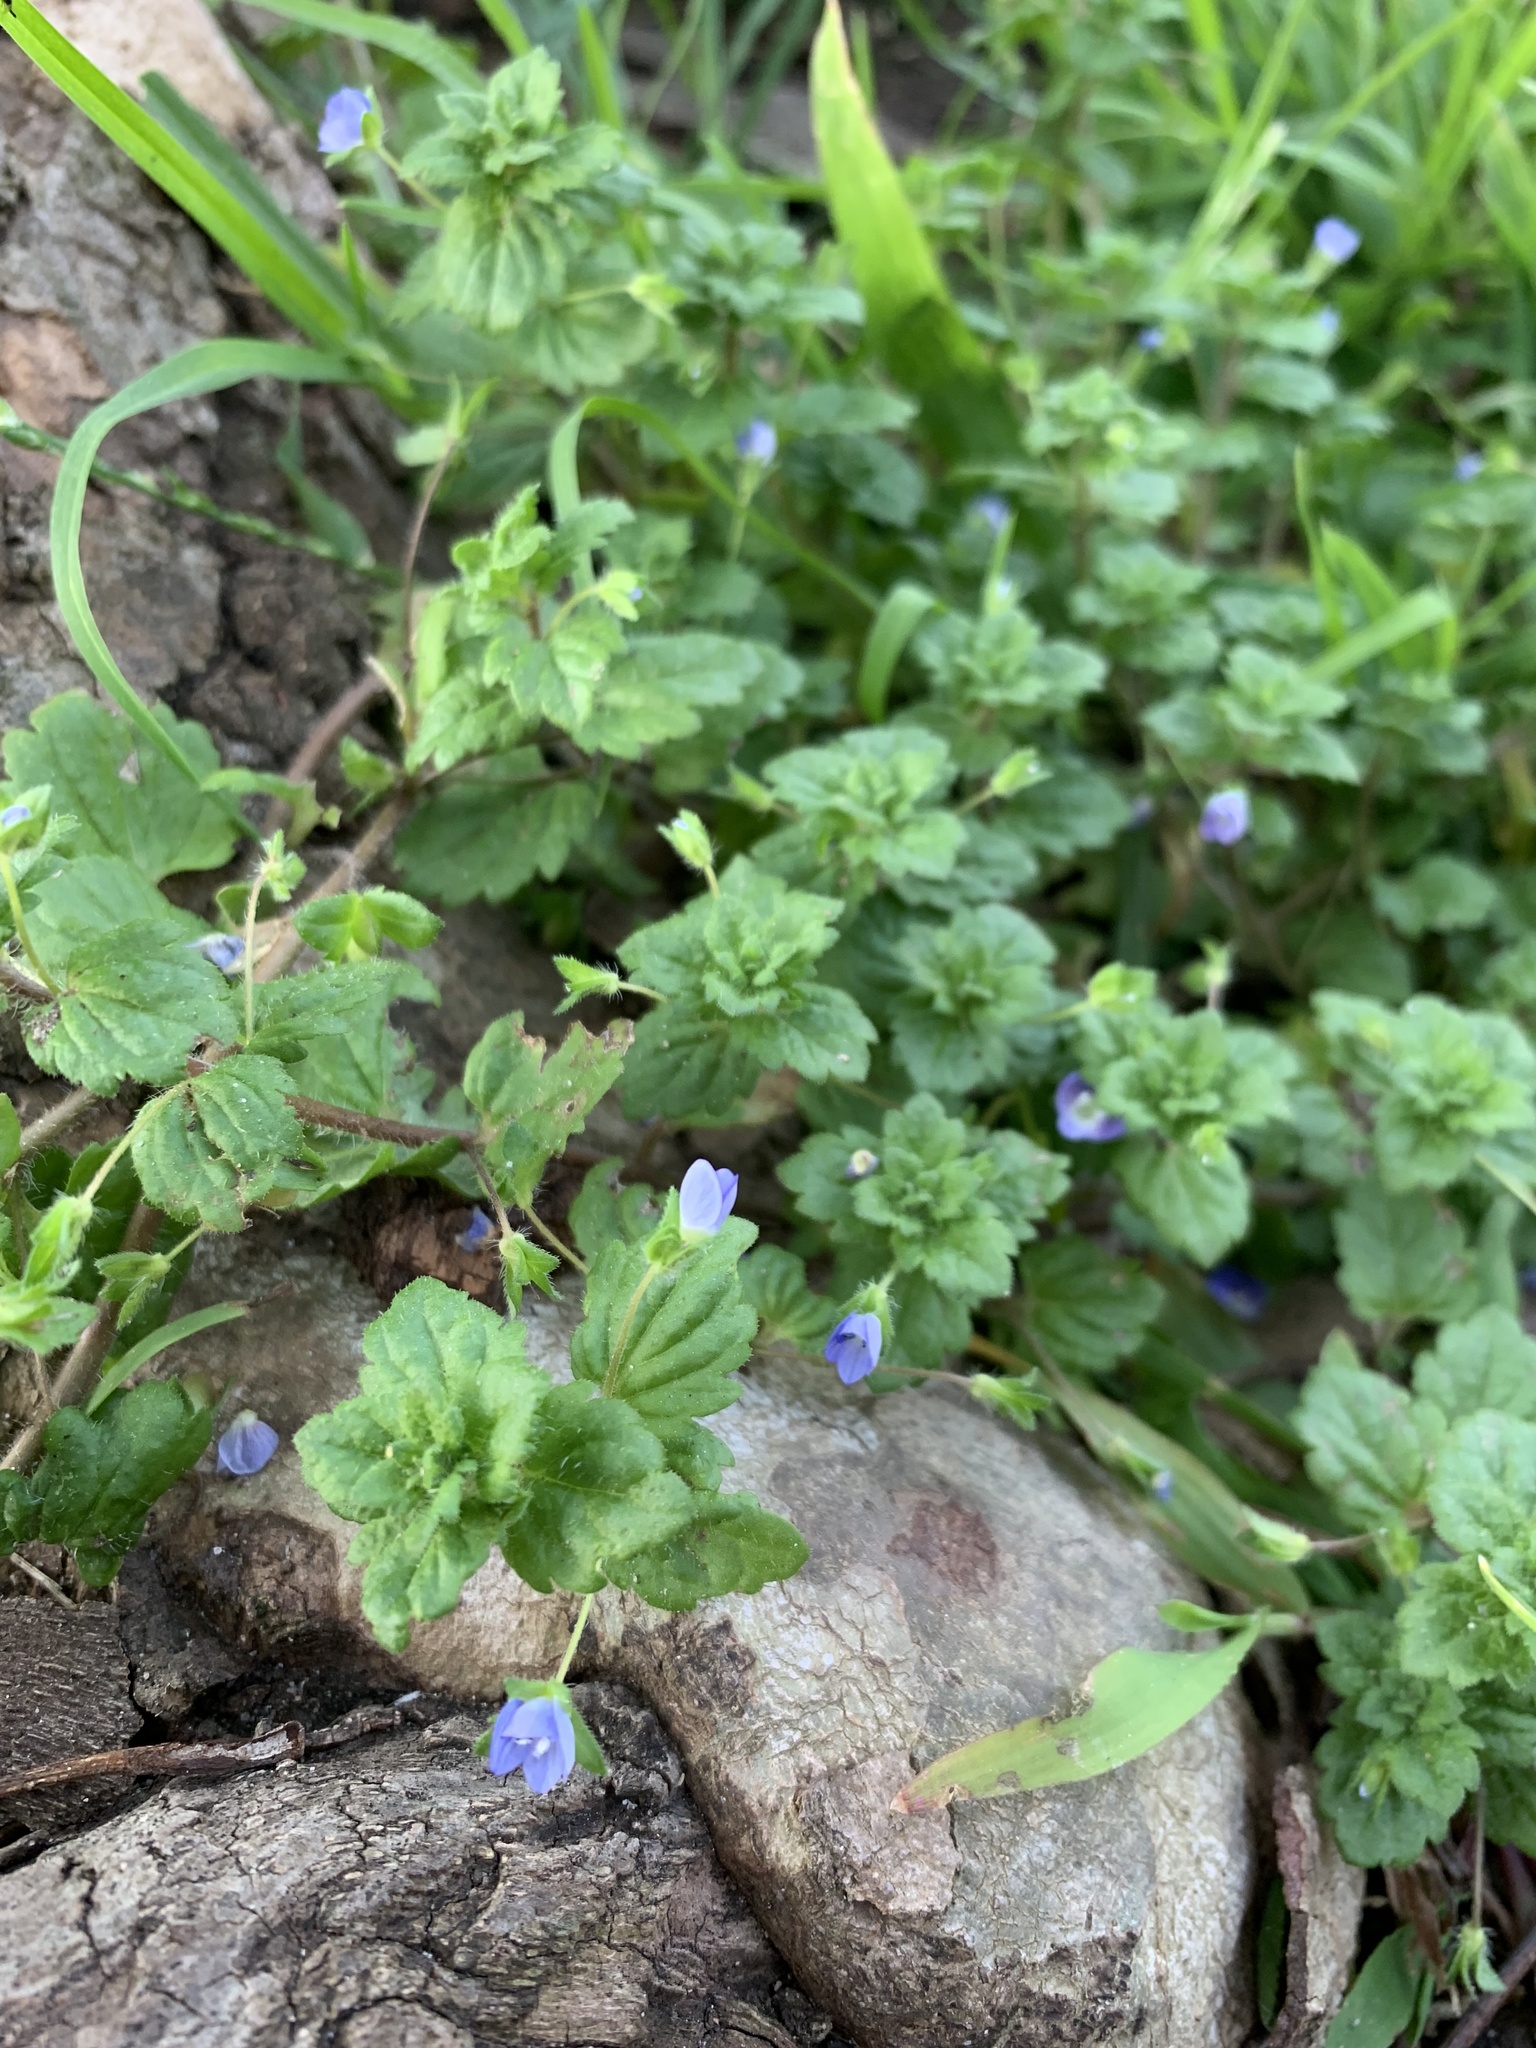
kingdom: Plantae
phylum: Tracheophyta
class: Magnoliopsida
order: Lamiales
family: Plantaginaceae
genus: Veronica
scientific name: Veronica persica
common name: Common field-speedwell
